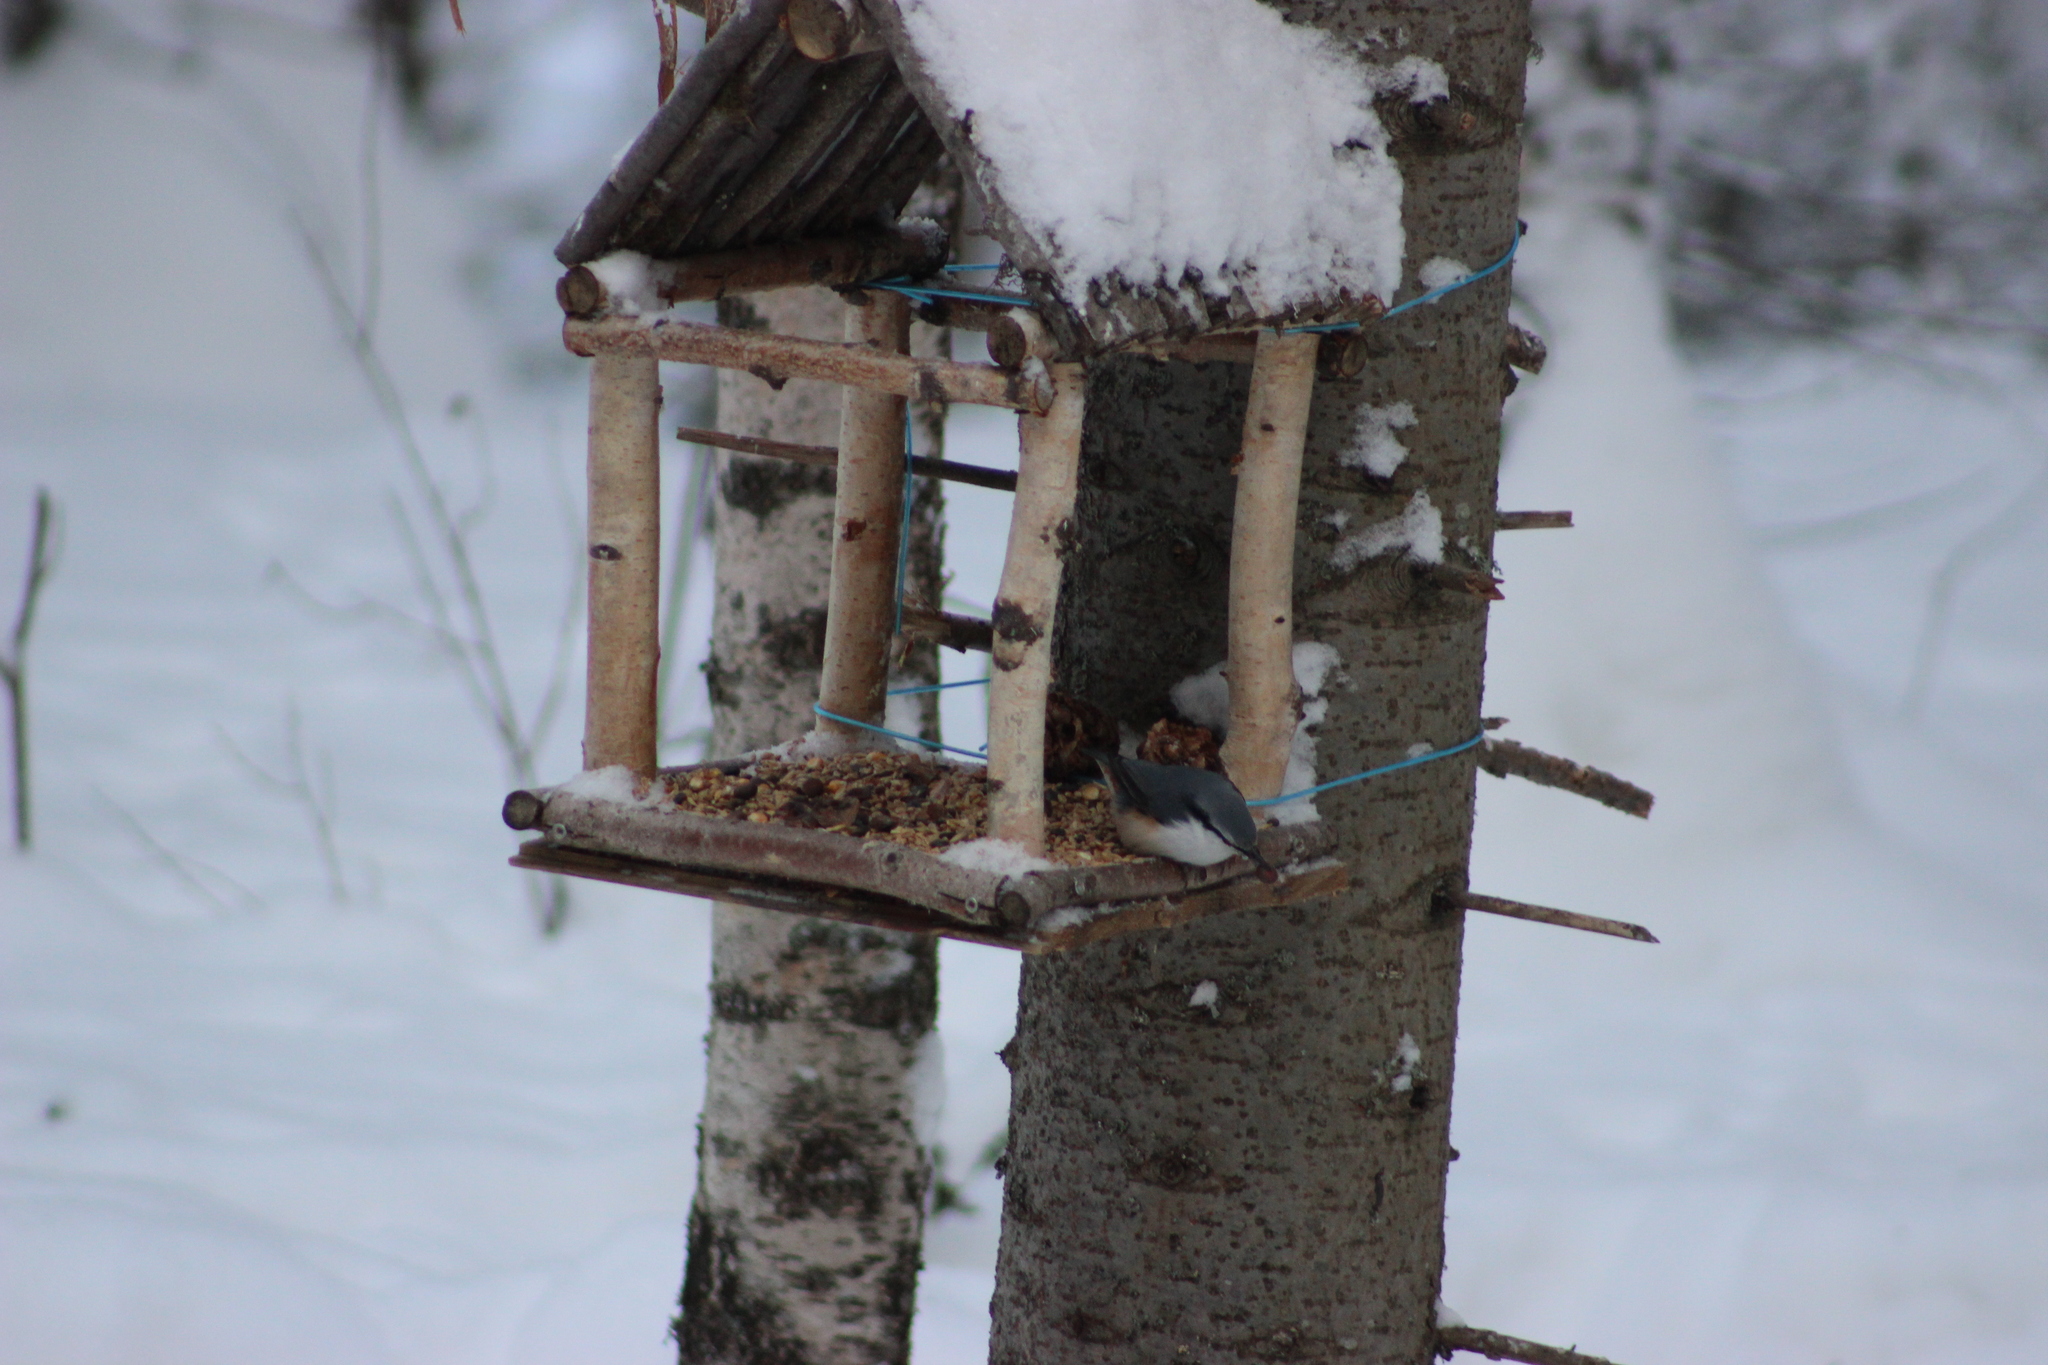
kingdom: Animalia
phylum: Chordata
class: Aves
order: Passeriformes
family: Sittidae
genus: Sitta
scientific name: Sitta europaea
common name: Eurasian nuthatch
